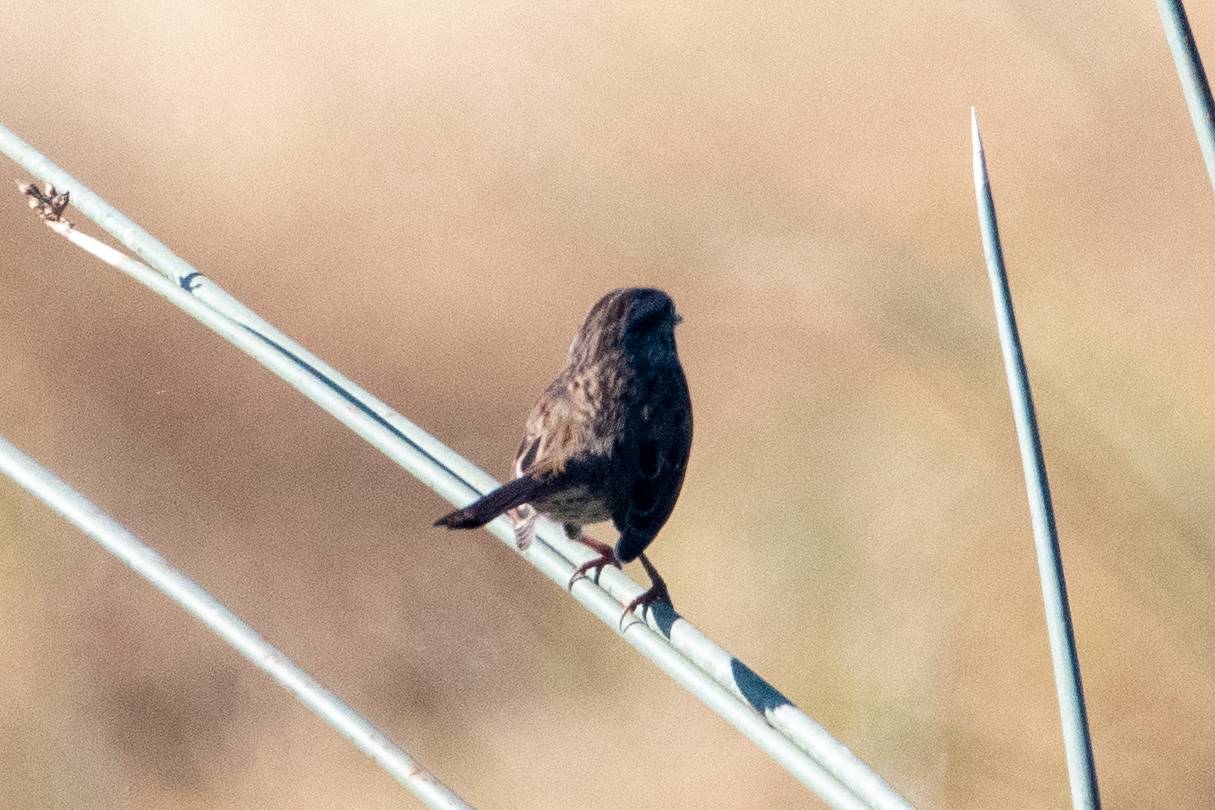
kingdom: Animalia
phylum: Chordata
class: Aves
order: Passeriformes
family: Passerellidae
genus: Melospiza
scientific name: Melospiza melodia
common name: Song sparrow
